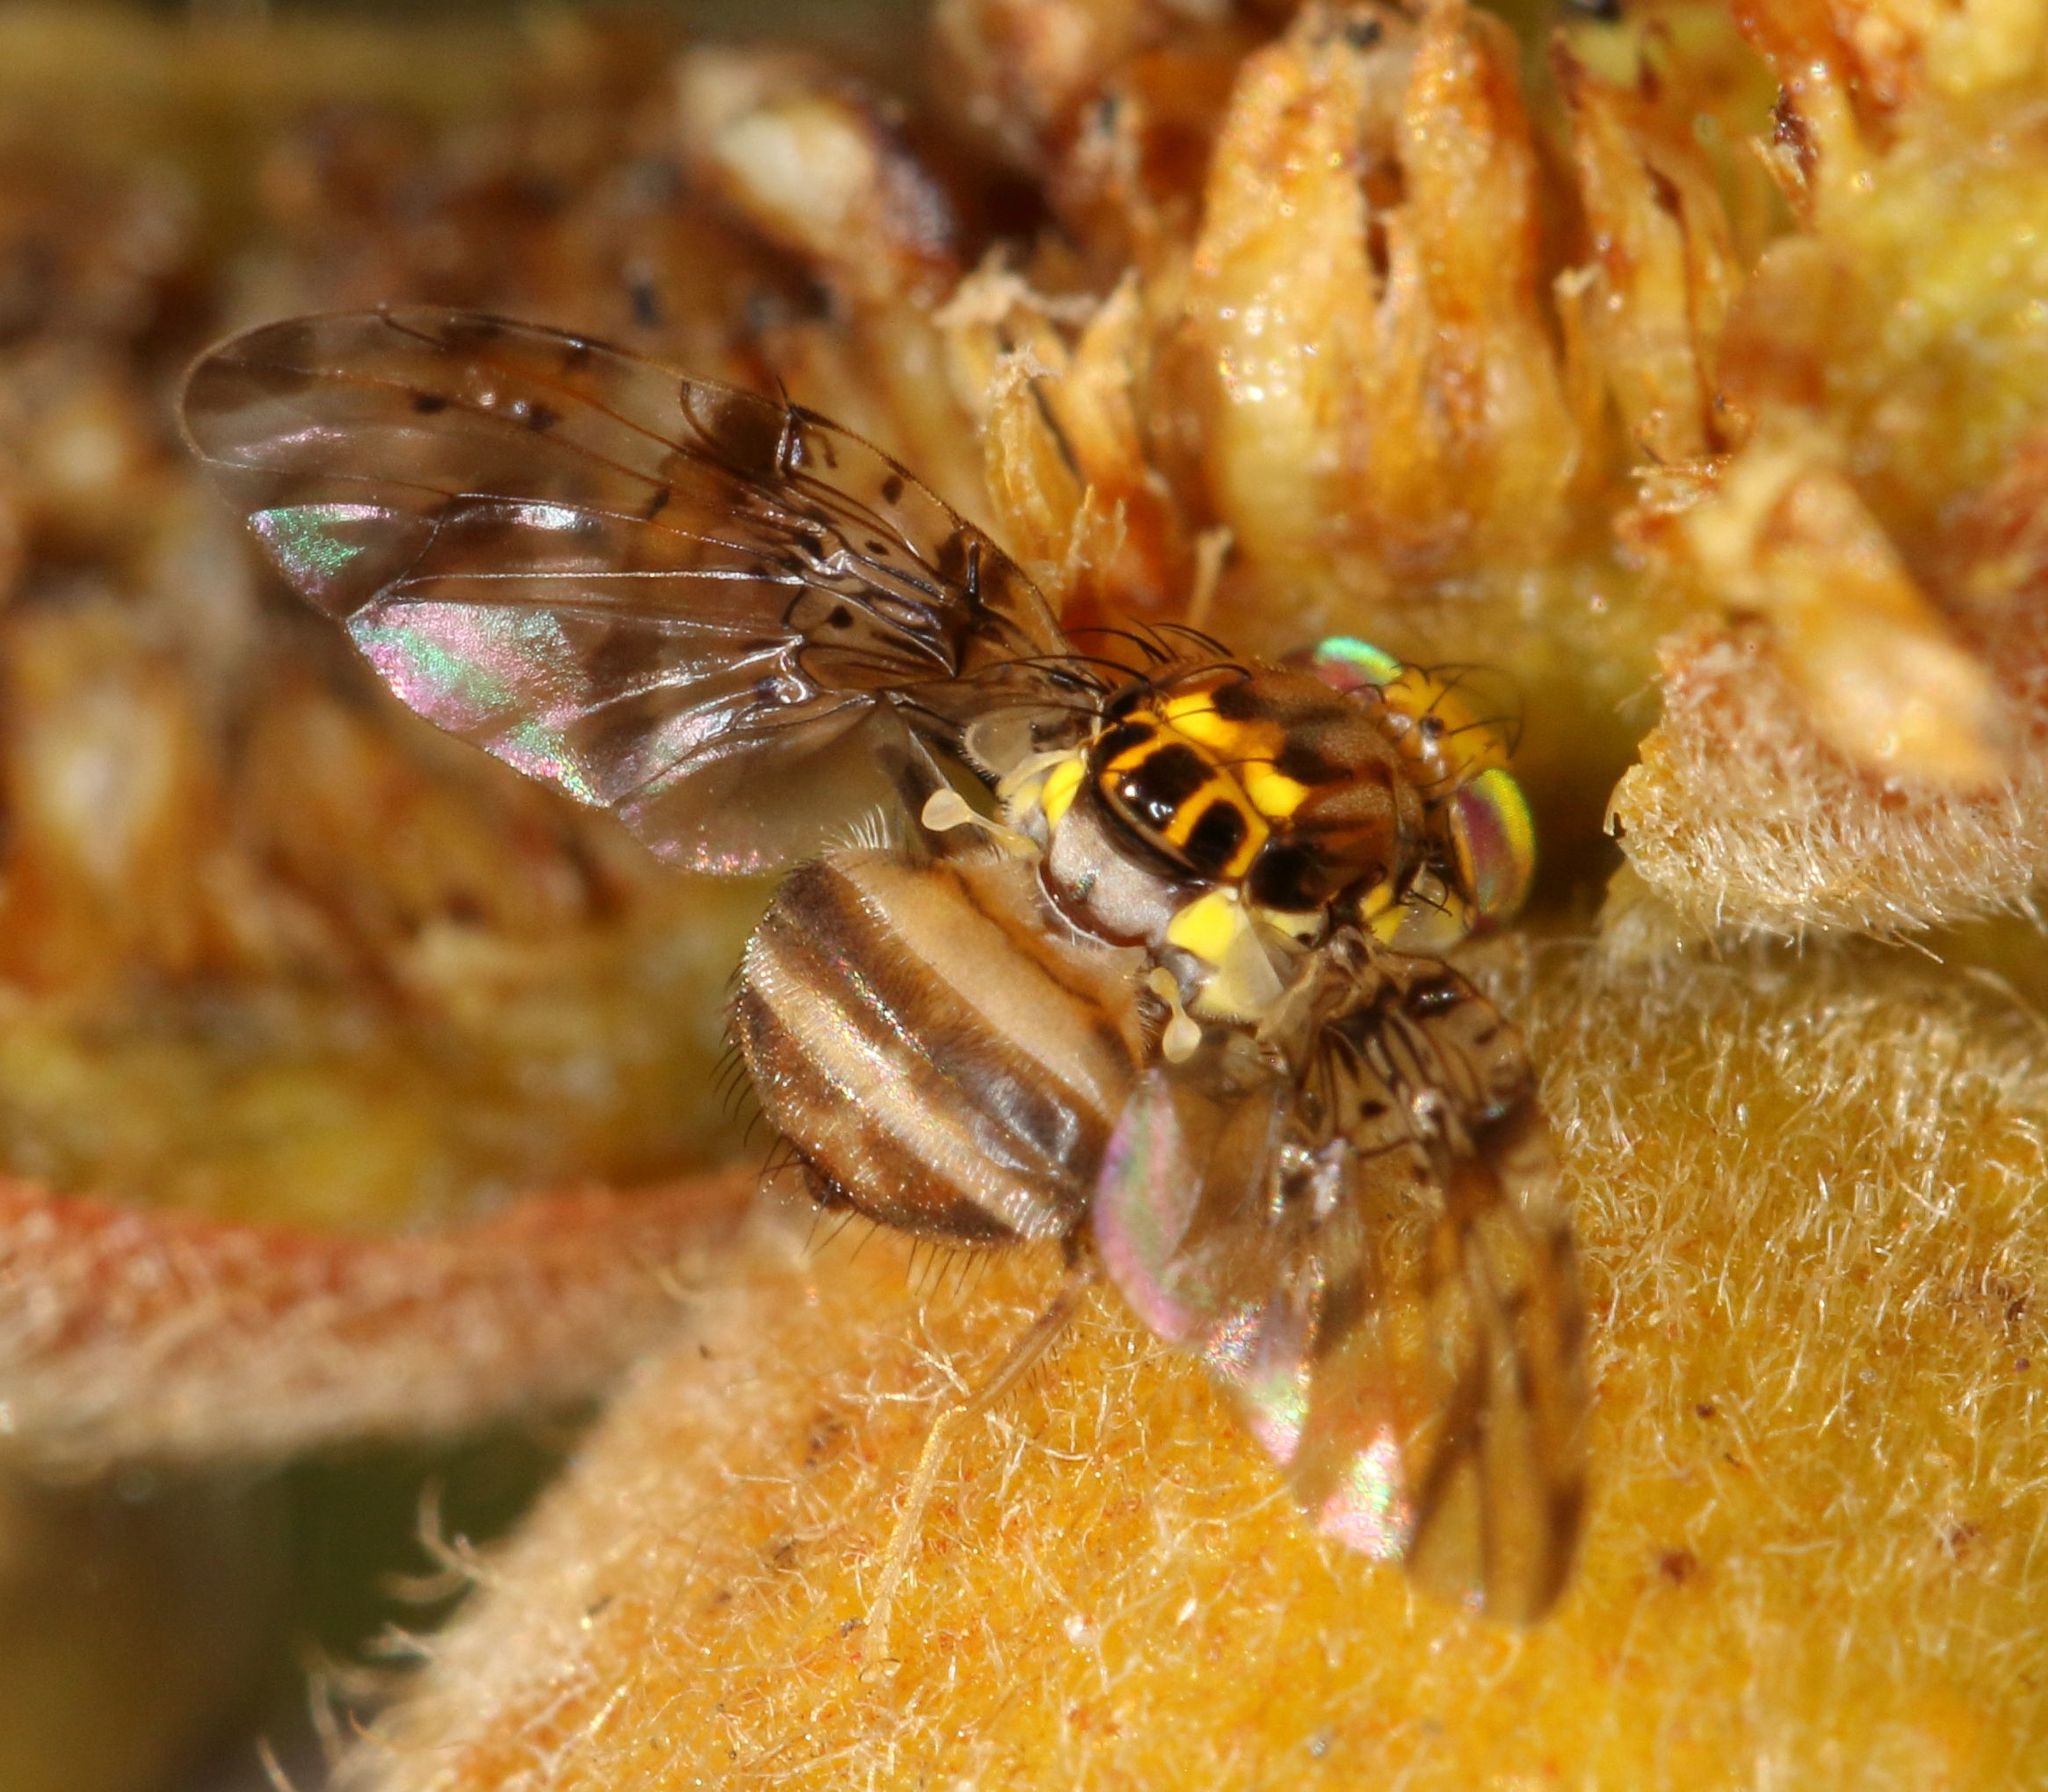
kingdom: Animalia
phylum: Arthropoda
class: Insecta
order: Diptera
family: Tephritidae
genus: Ceratitis
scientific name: Ceratitis
